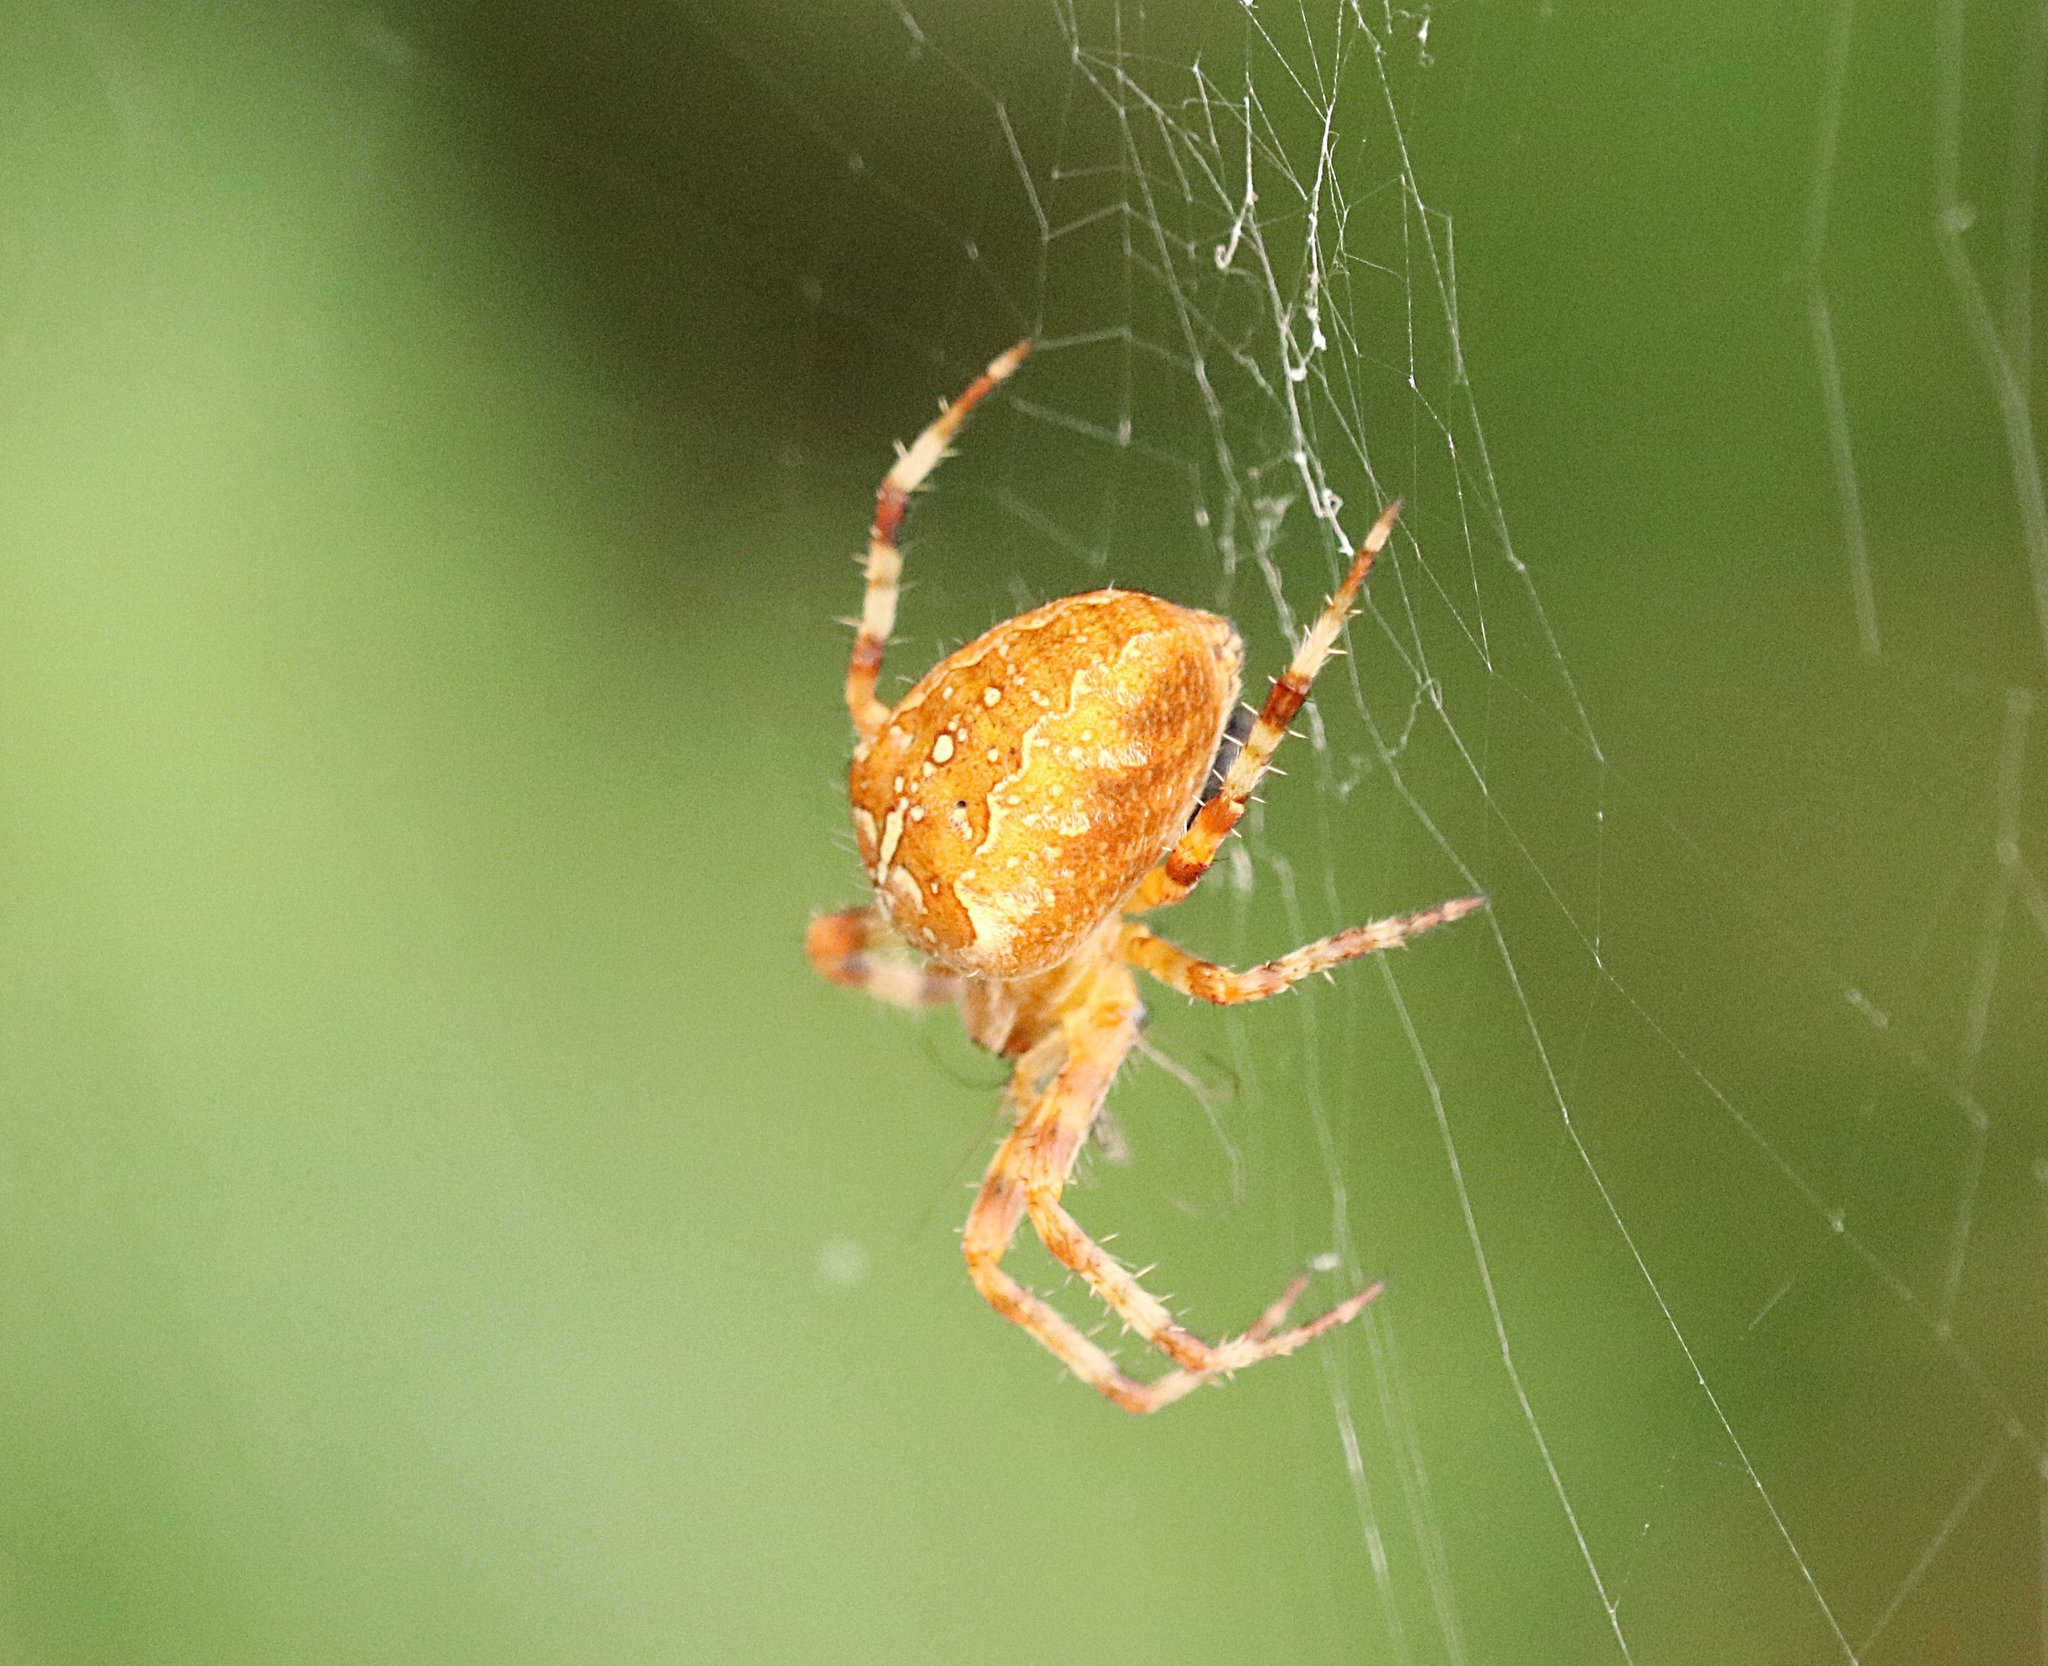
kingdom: Animalia
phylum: Arthropoda
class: Arachnida
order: Araneae
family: Araneidae
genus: Araneus
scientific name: Araneus diadematus
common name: Cross orbweaver
